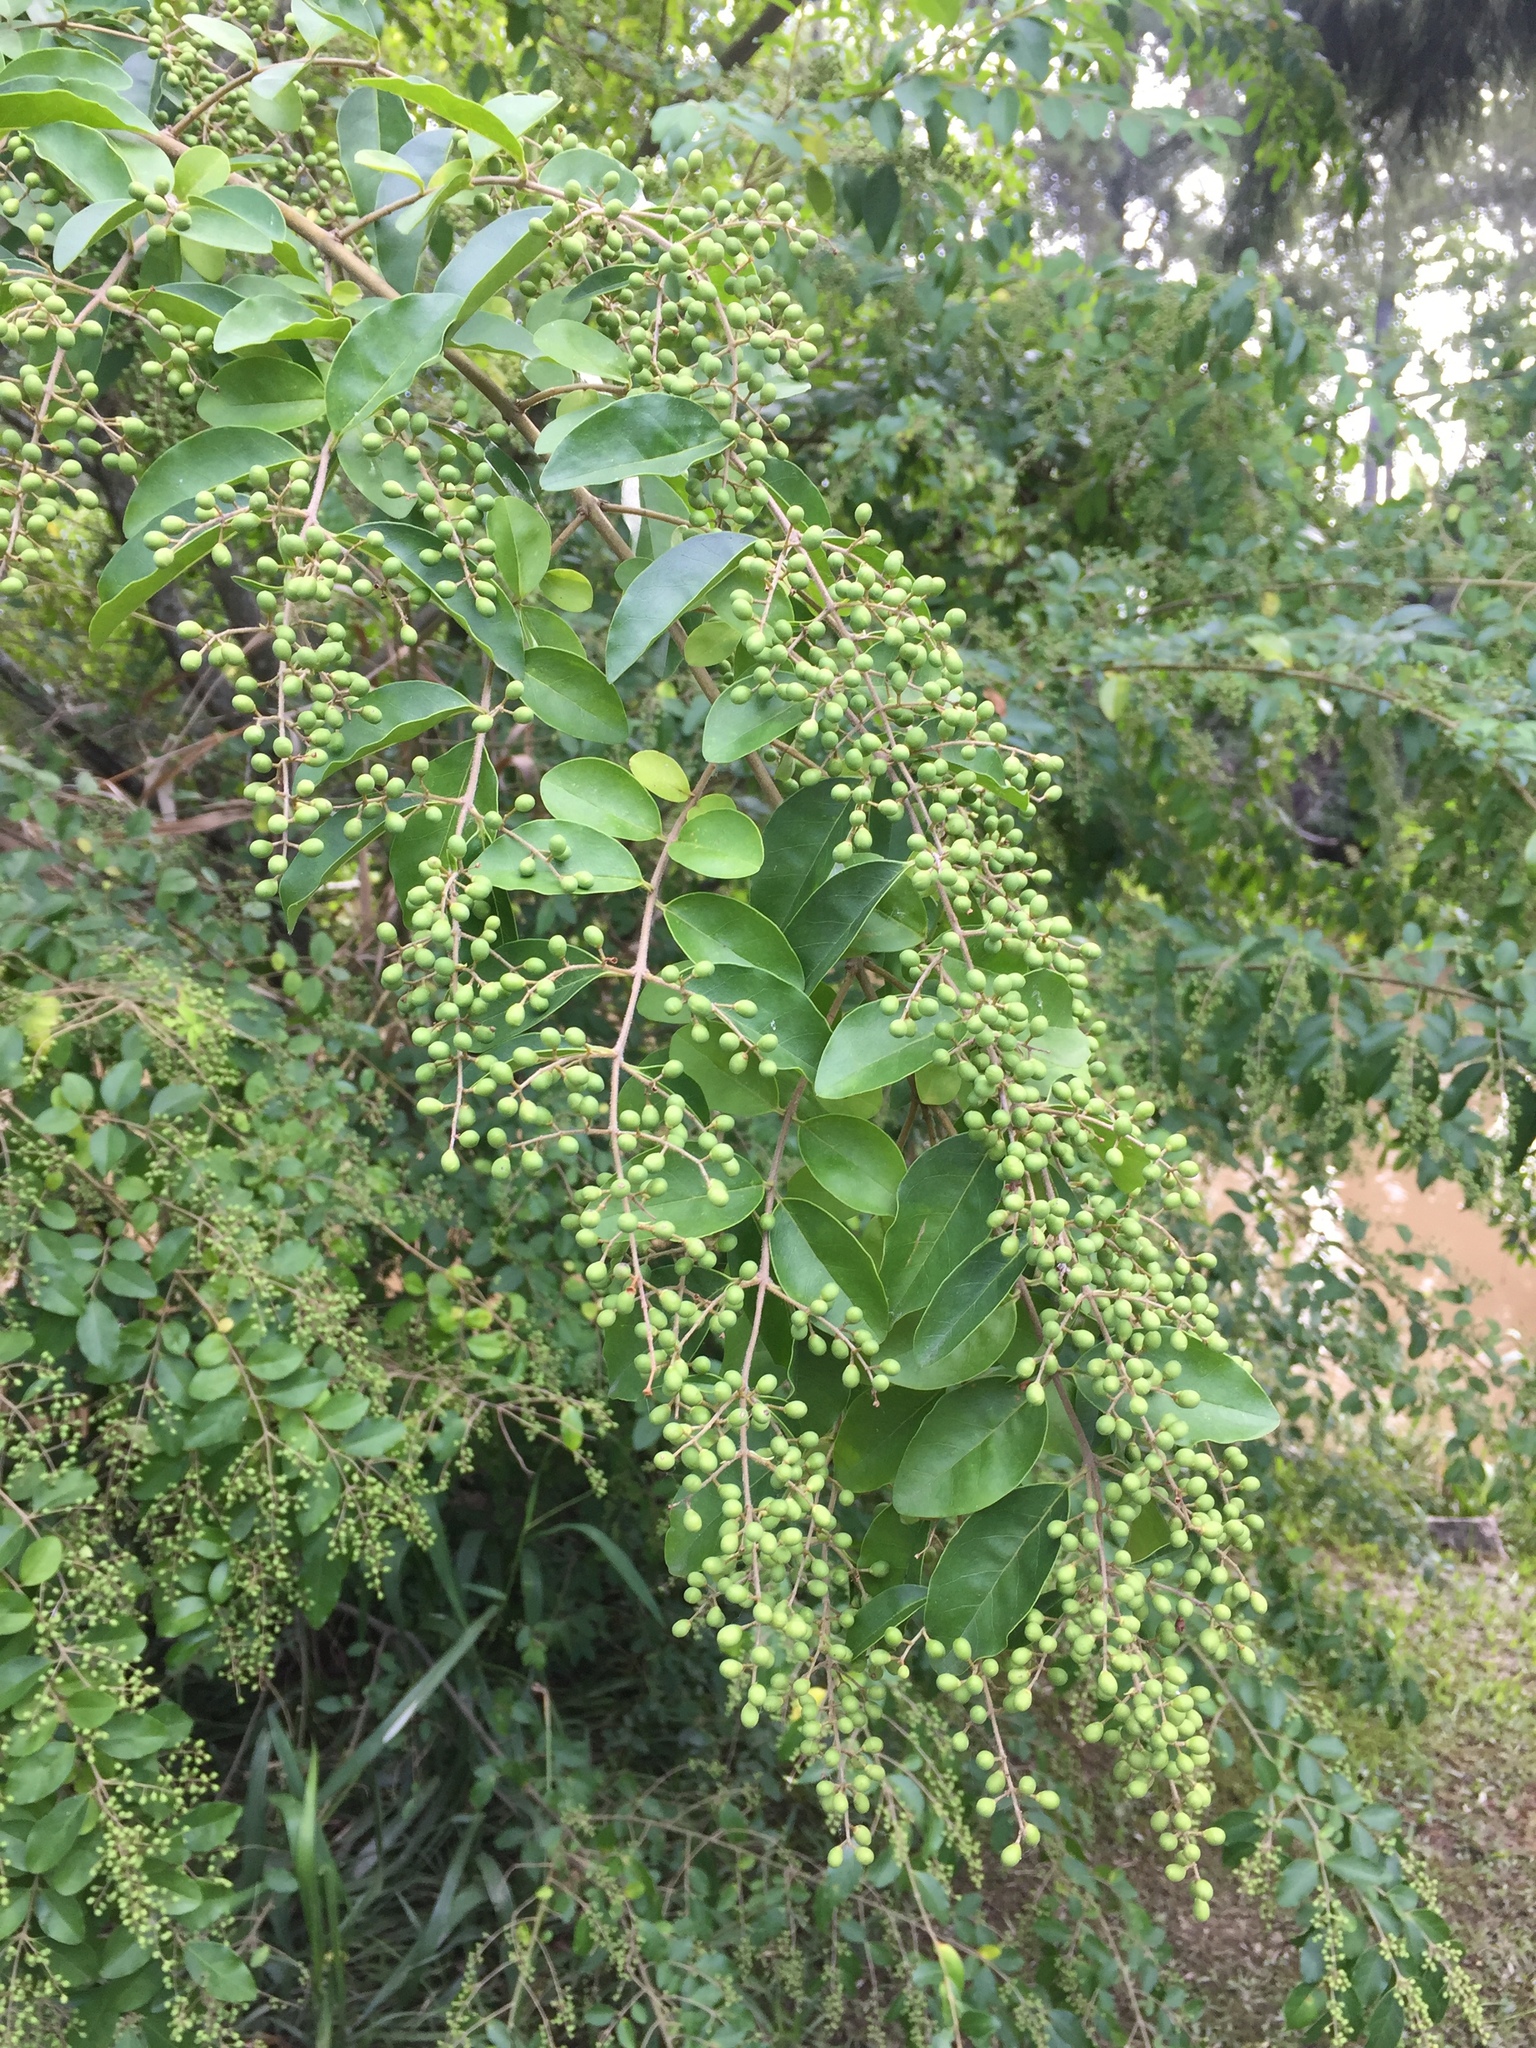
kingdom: Plantae
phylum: Tracheophyta
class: Magnoliopsida
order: Lamiales
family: Oleaceae
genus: Ligustrum
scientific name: Ligustrum sinense
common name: Chinese privet
